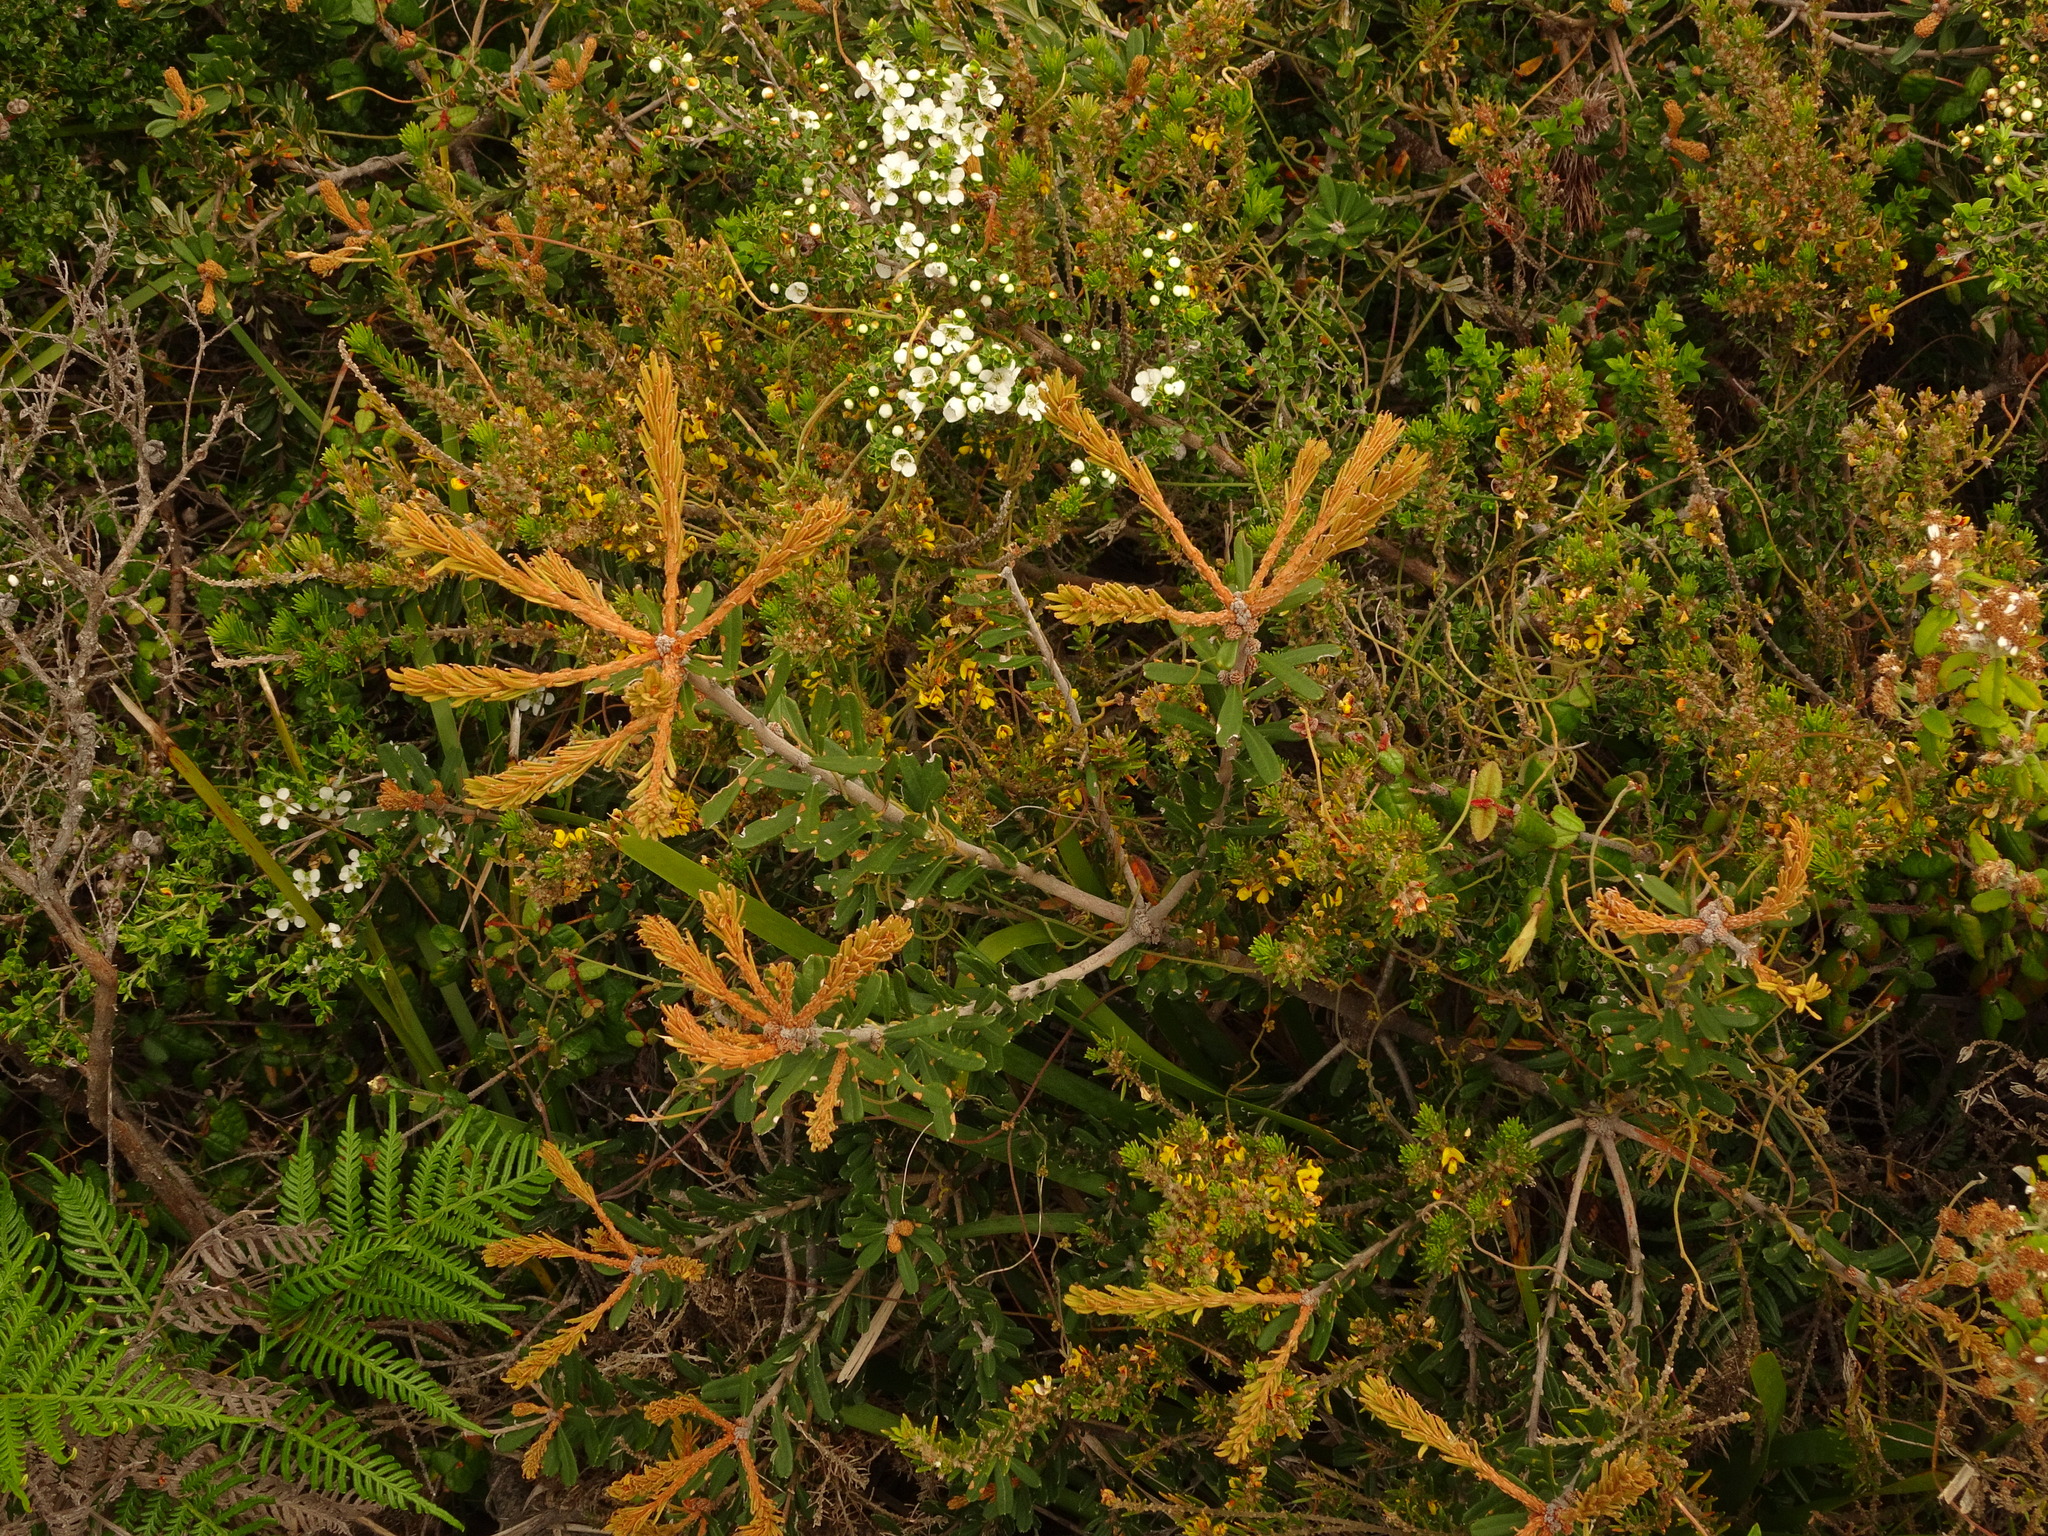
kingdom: Plantae
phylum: Tracheophyta
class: Magnoliopsida
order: Proteales
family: Proteaceae
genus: Banksia
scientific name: Banksia marginata
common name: Silver banksia
